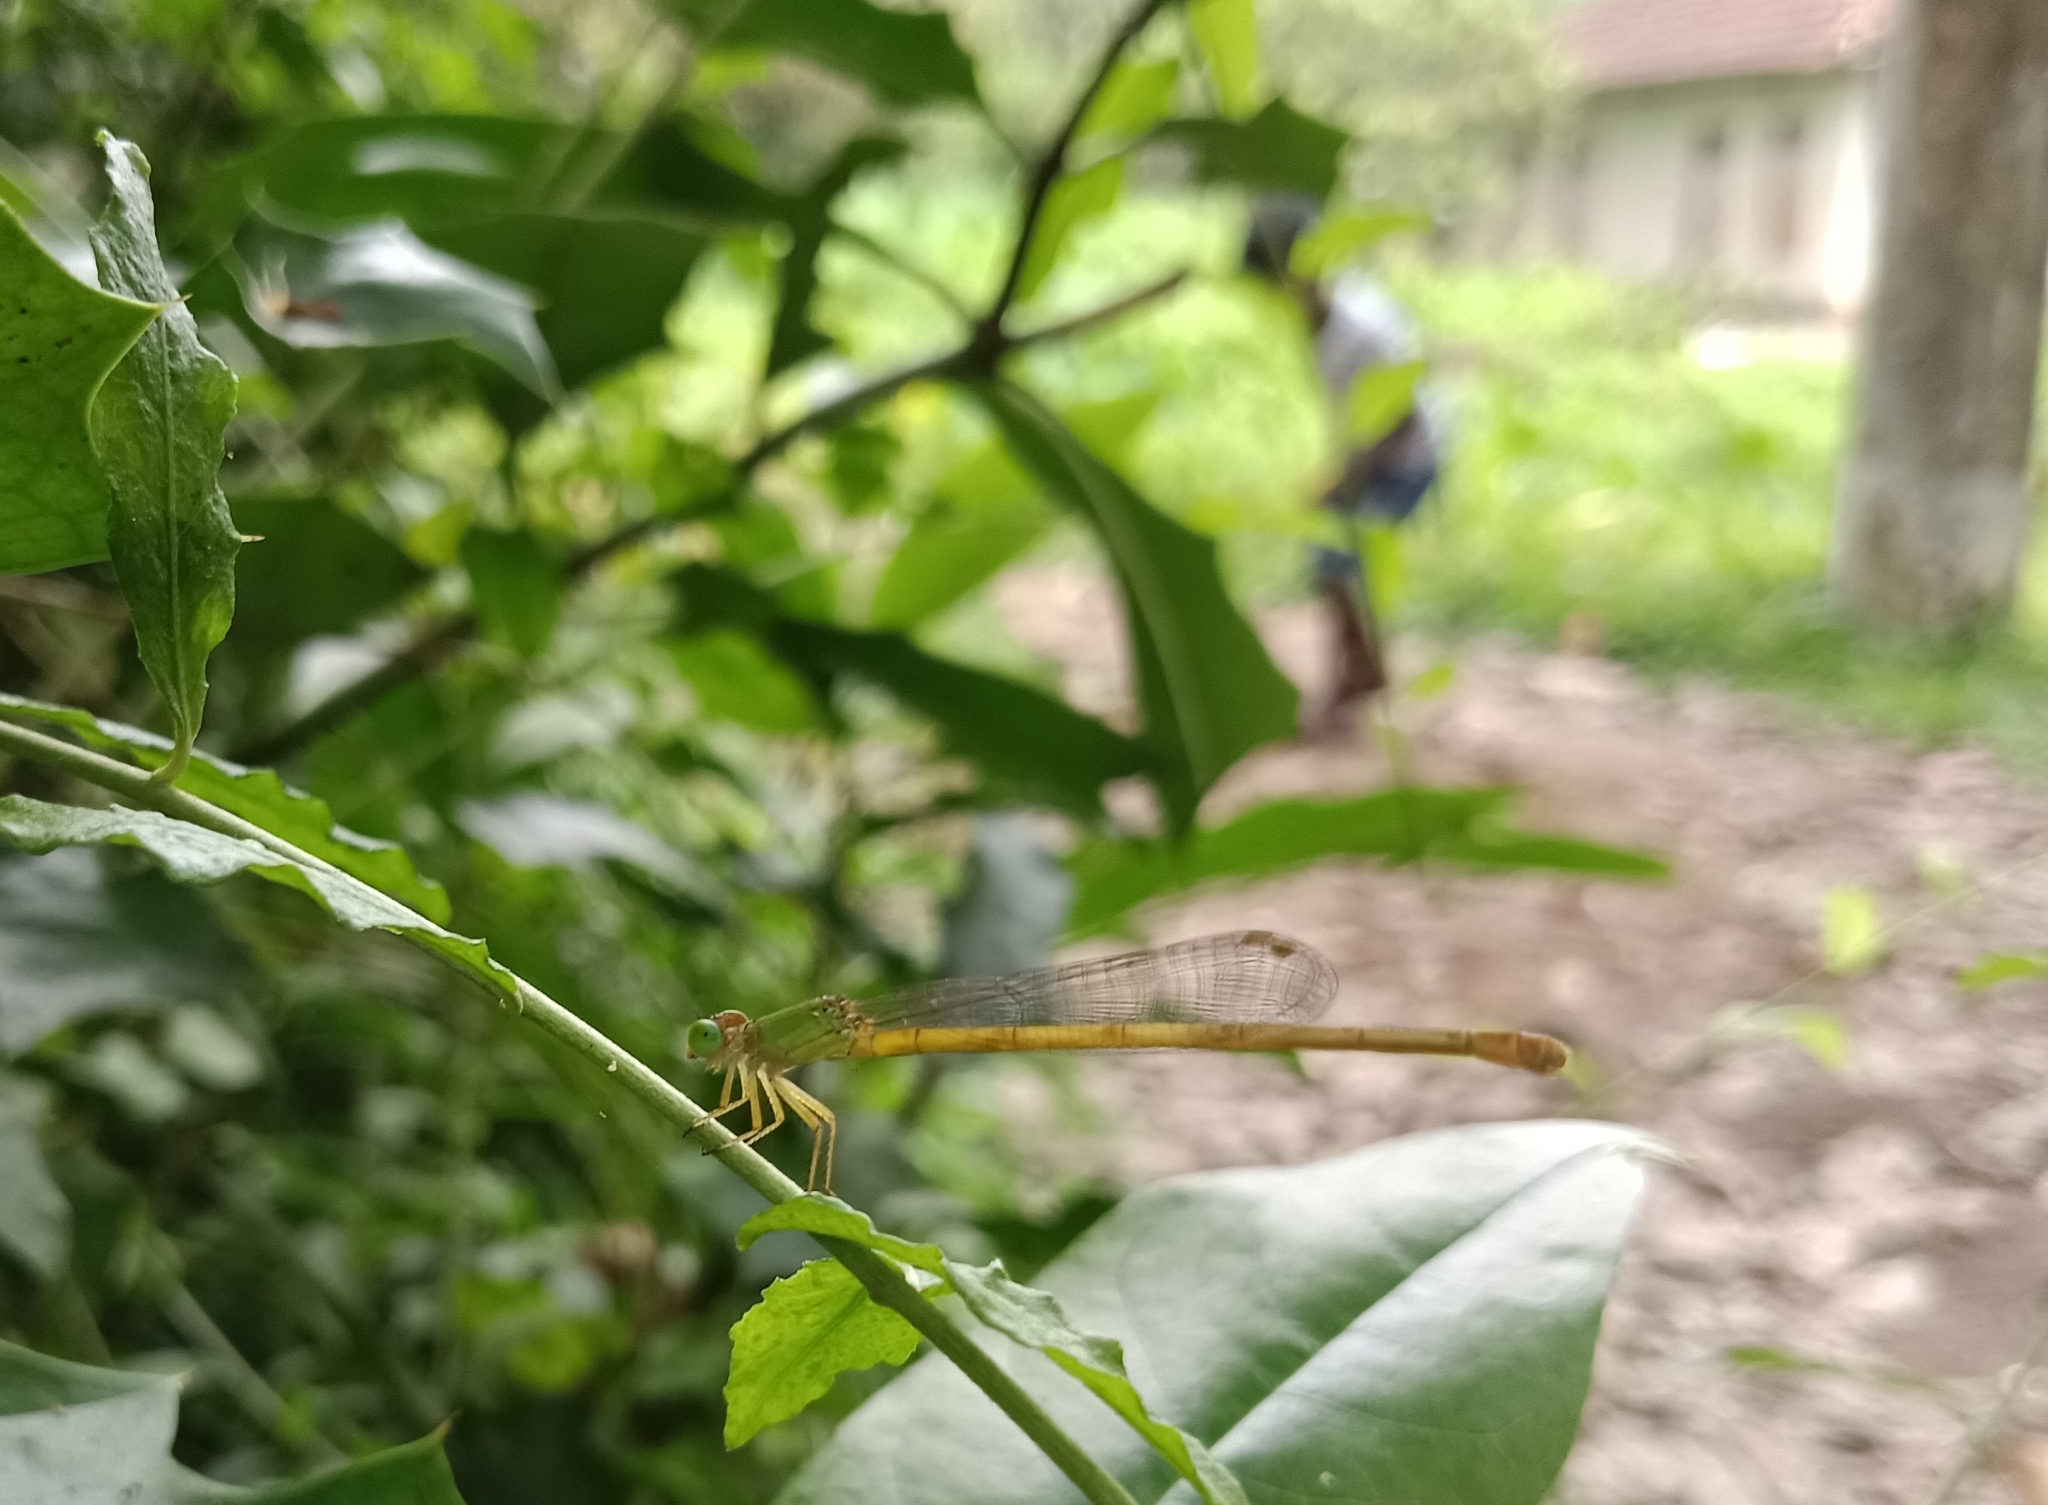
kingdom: Animalia
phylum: Arthropoda
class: Insecta
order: Odonata
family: Coenagrionidae
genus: Ceriagrion
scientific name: Ceriagrion coromandelianum
